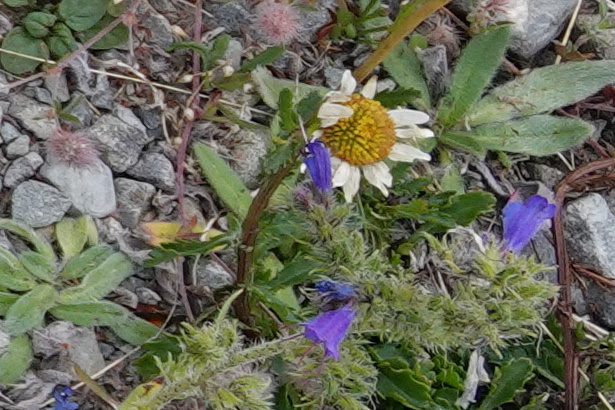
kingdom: Plantae
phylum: Tracheophyta
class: Magnoliopsida
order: Asterales
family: Asteraceae
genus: Leucanthemum
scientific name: Leucanthemum vulgare
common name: Oxeye daisy
